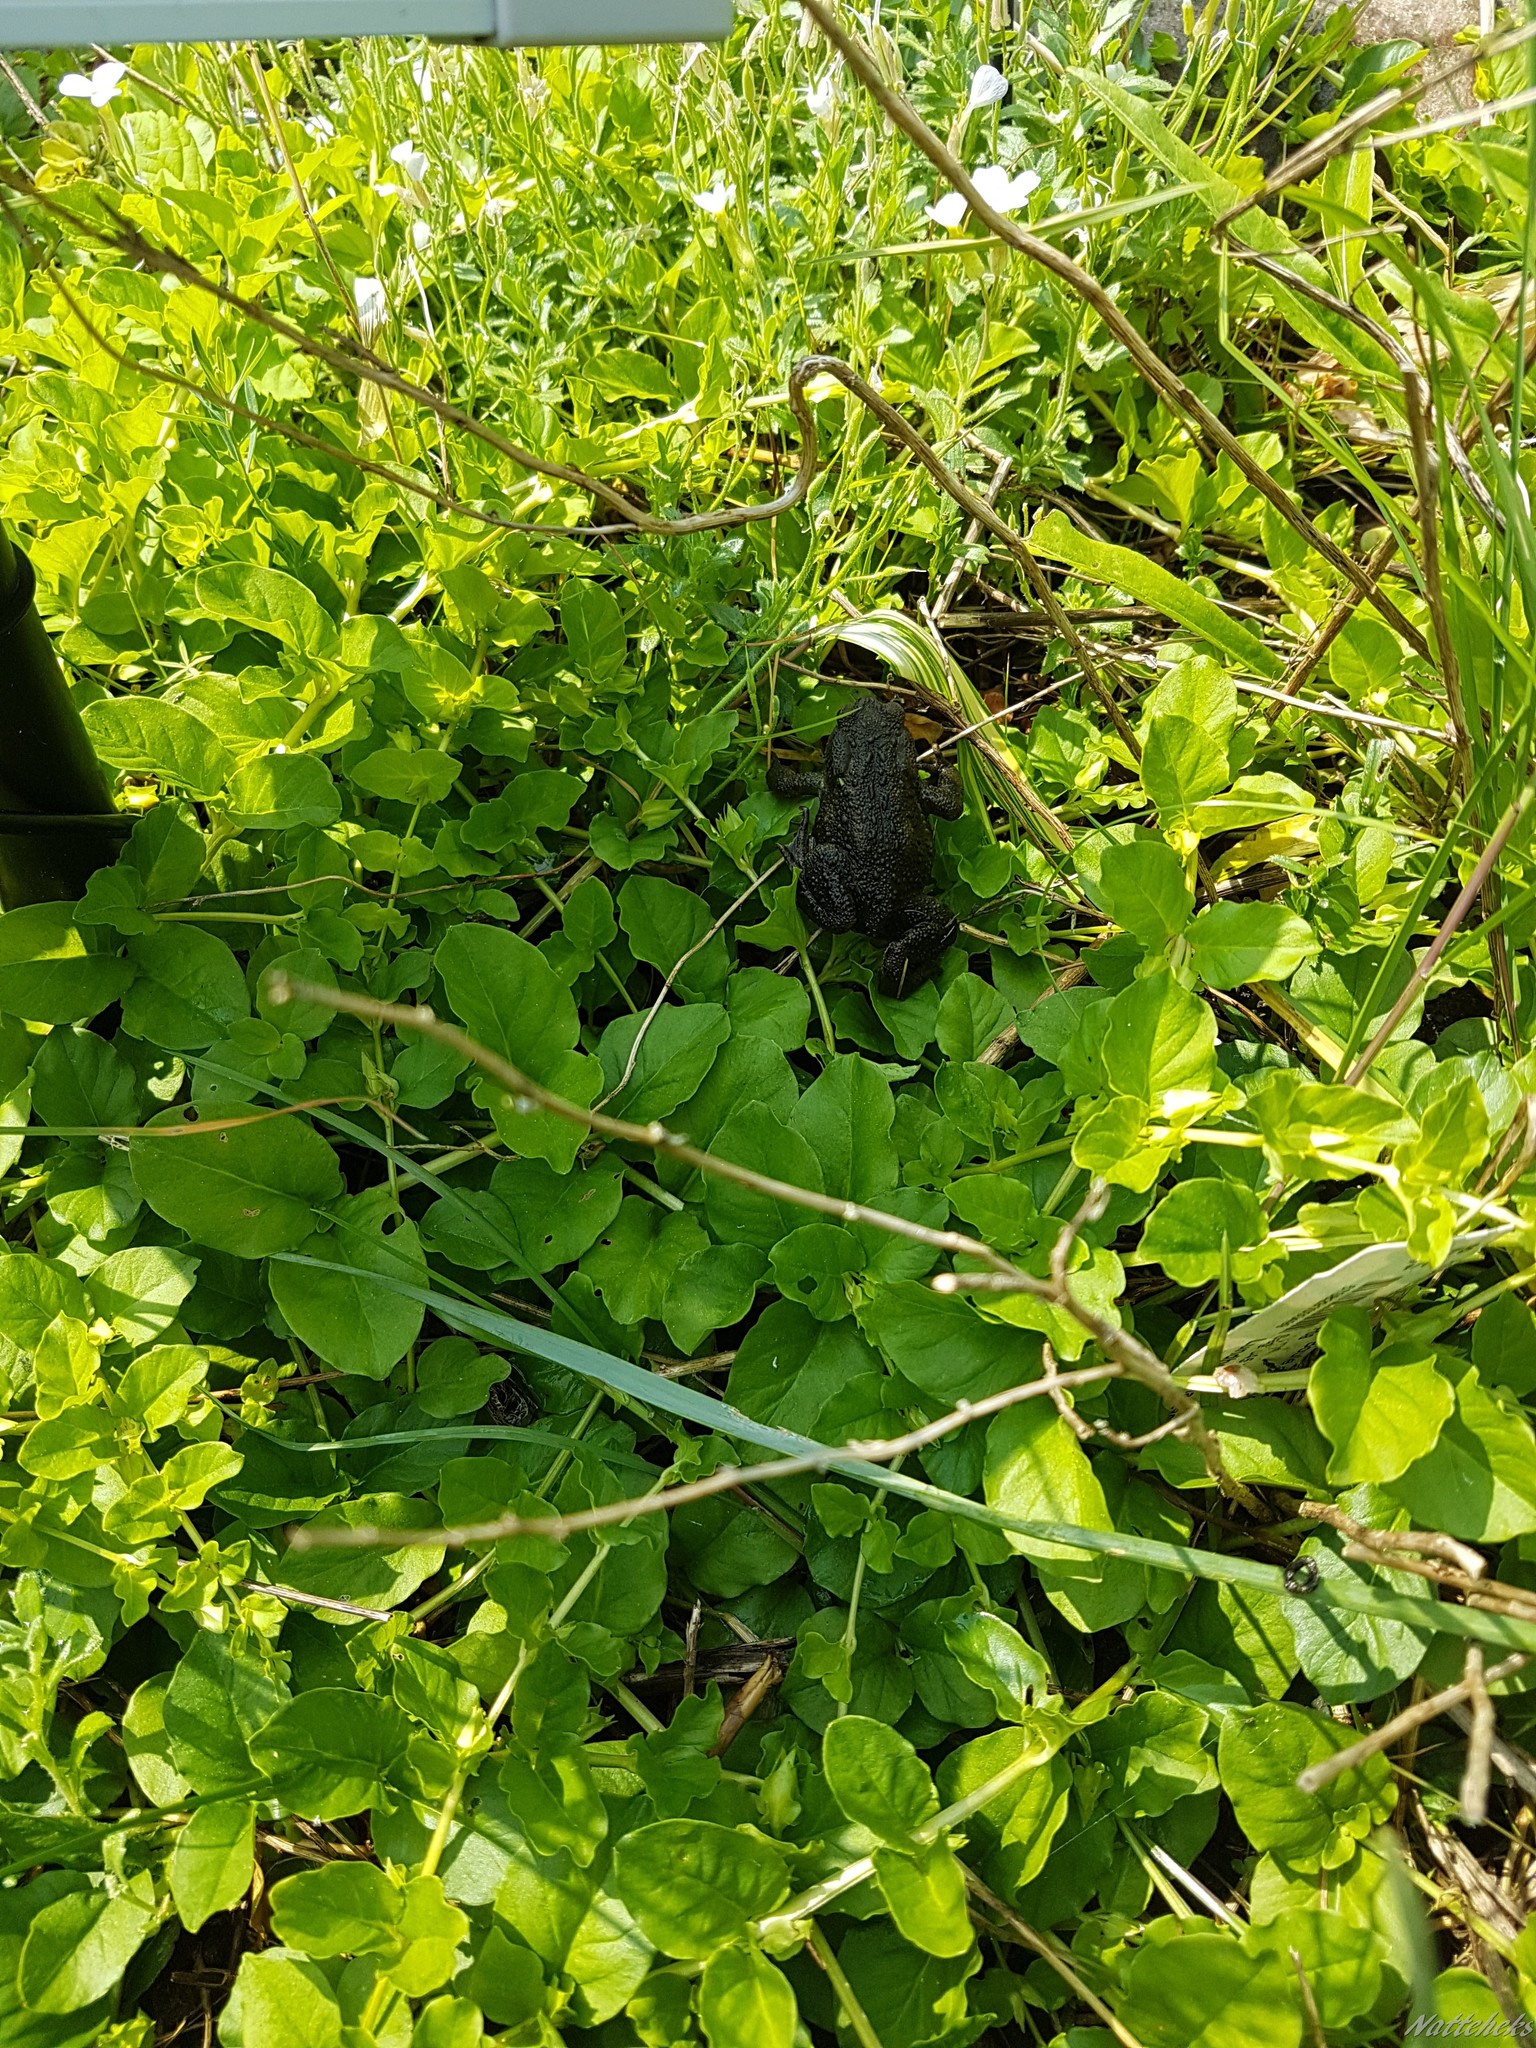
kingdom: Animalia
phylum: Chordata
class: Amphibia
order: Anura
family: Bufonidae
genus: Bufo
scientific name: Bufo bufo
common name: Common toad
